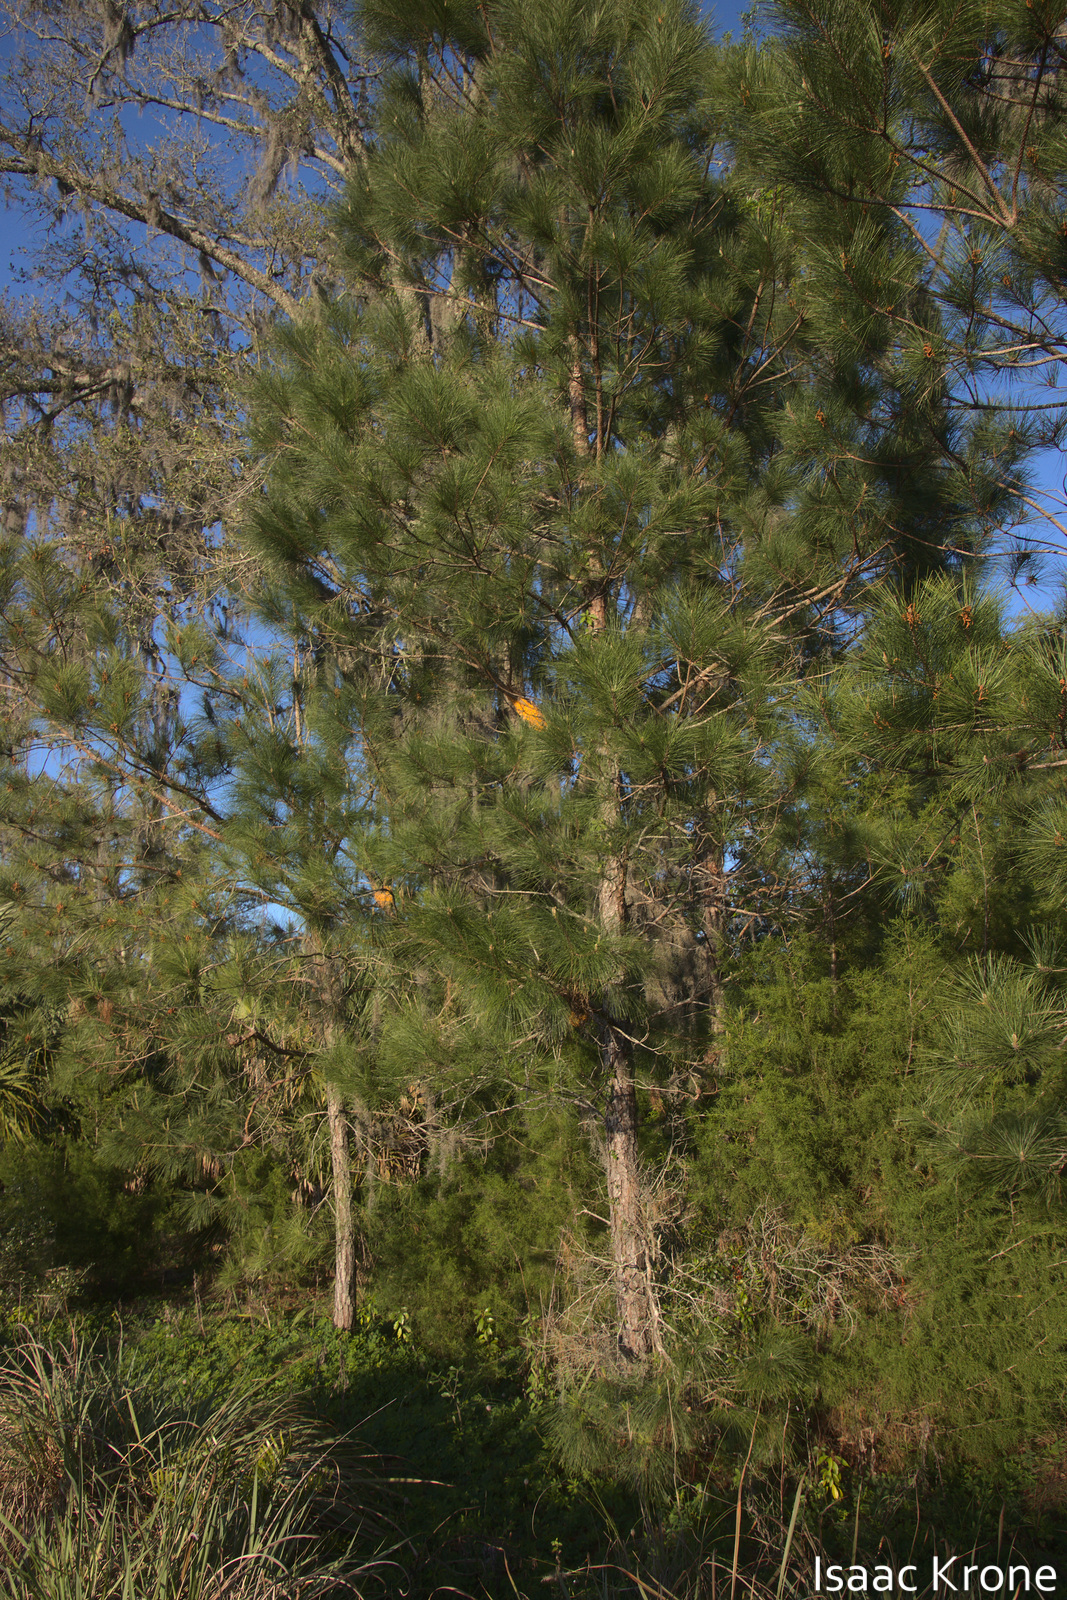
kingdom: Plantae
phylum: Tracheophyta
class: Pinopsida
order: Pinales
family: Pinaceae
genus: Pinus
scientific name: Pinus taeda
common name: Loblolly pine
